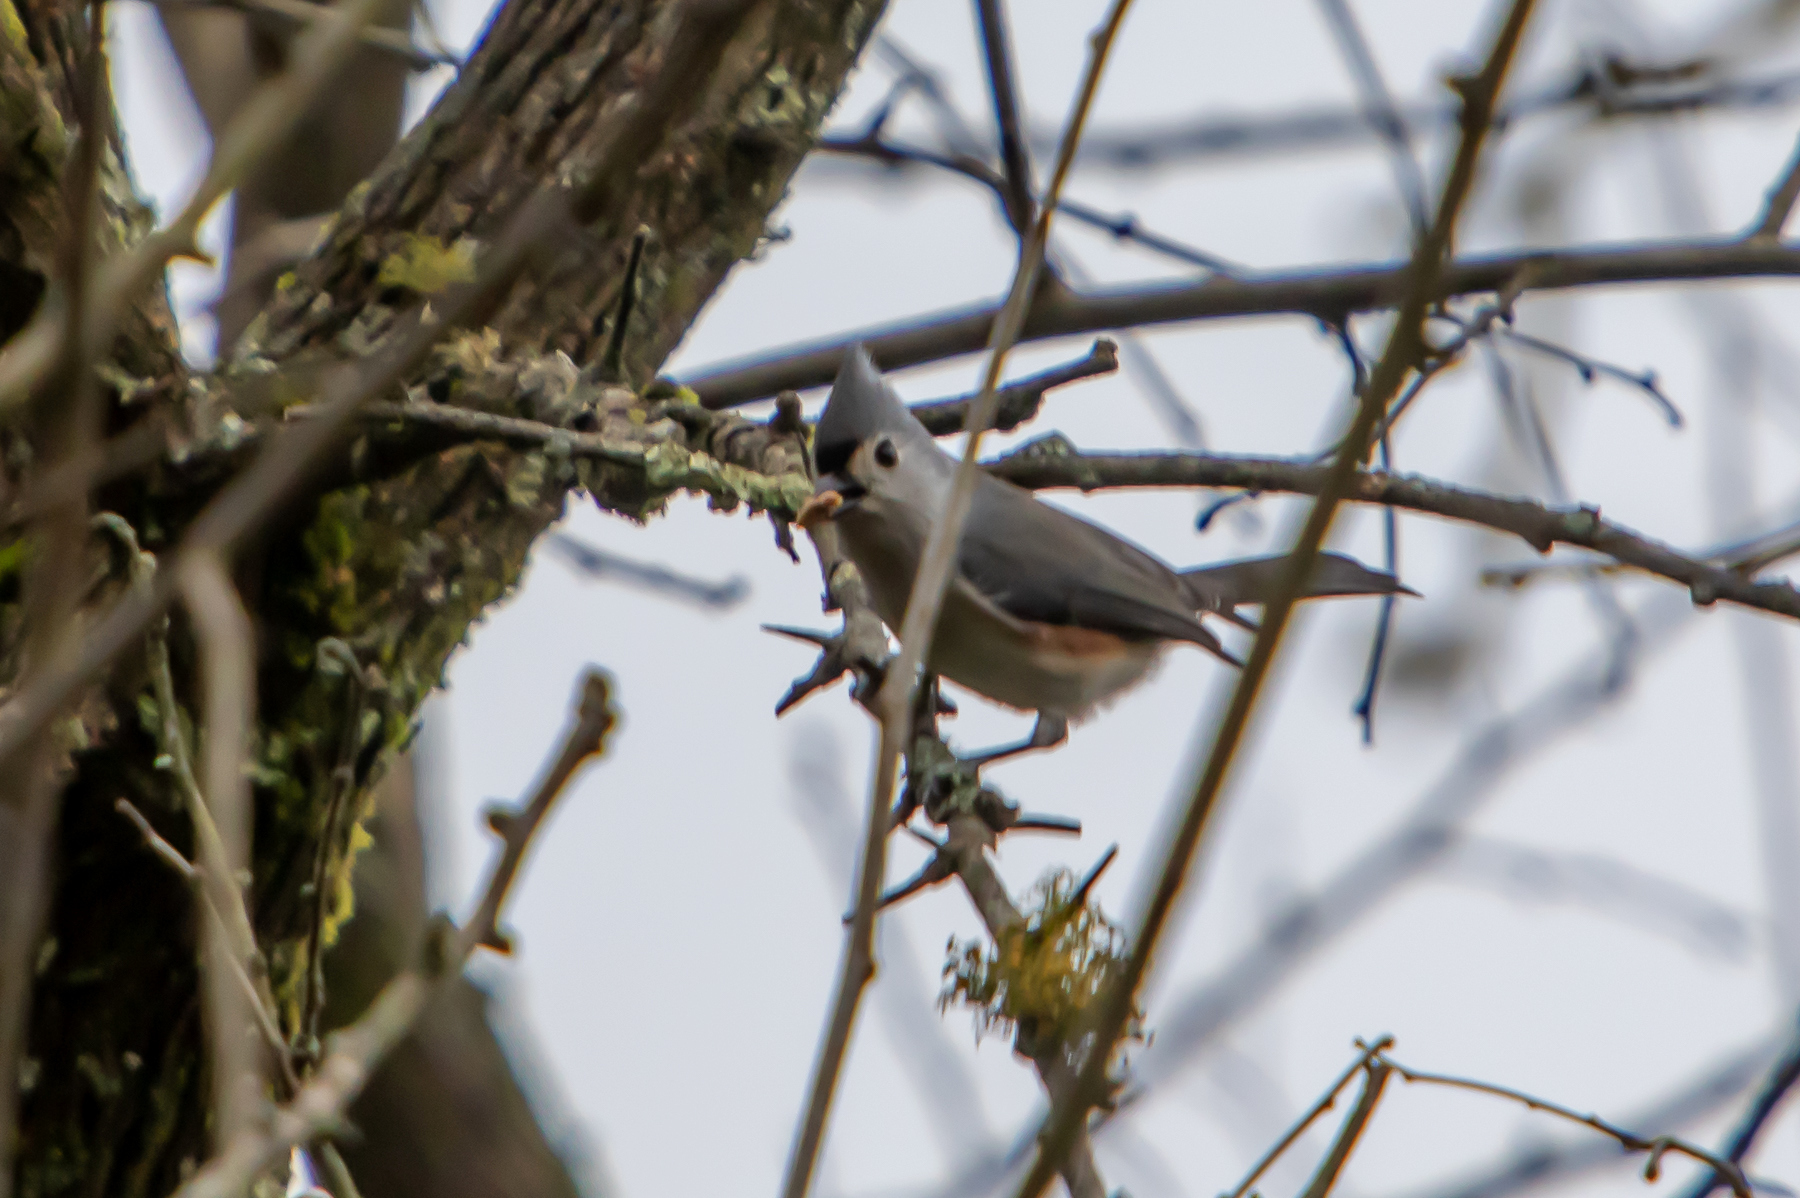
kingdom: Animalia
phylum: Chordata
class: Aves
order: Passeriformes
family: Paridae
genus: Baeolophus
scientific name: Baeolophus bicolor
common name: Tufted titmouse
